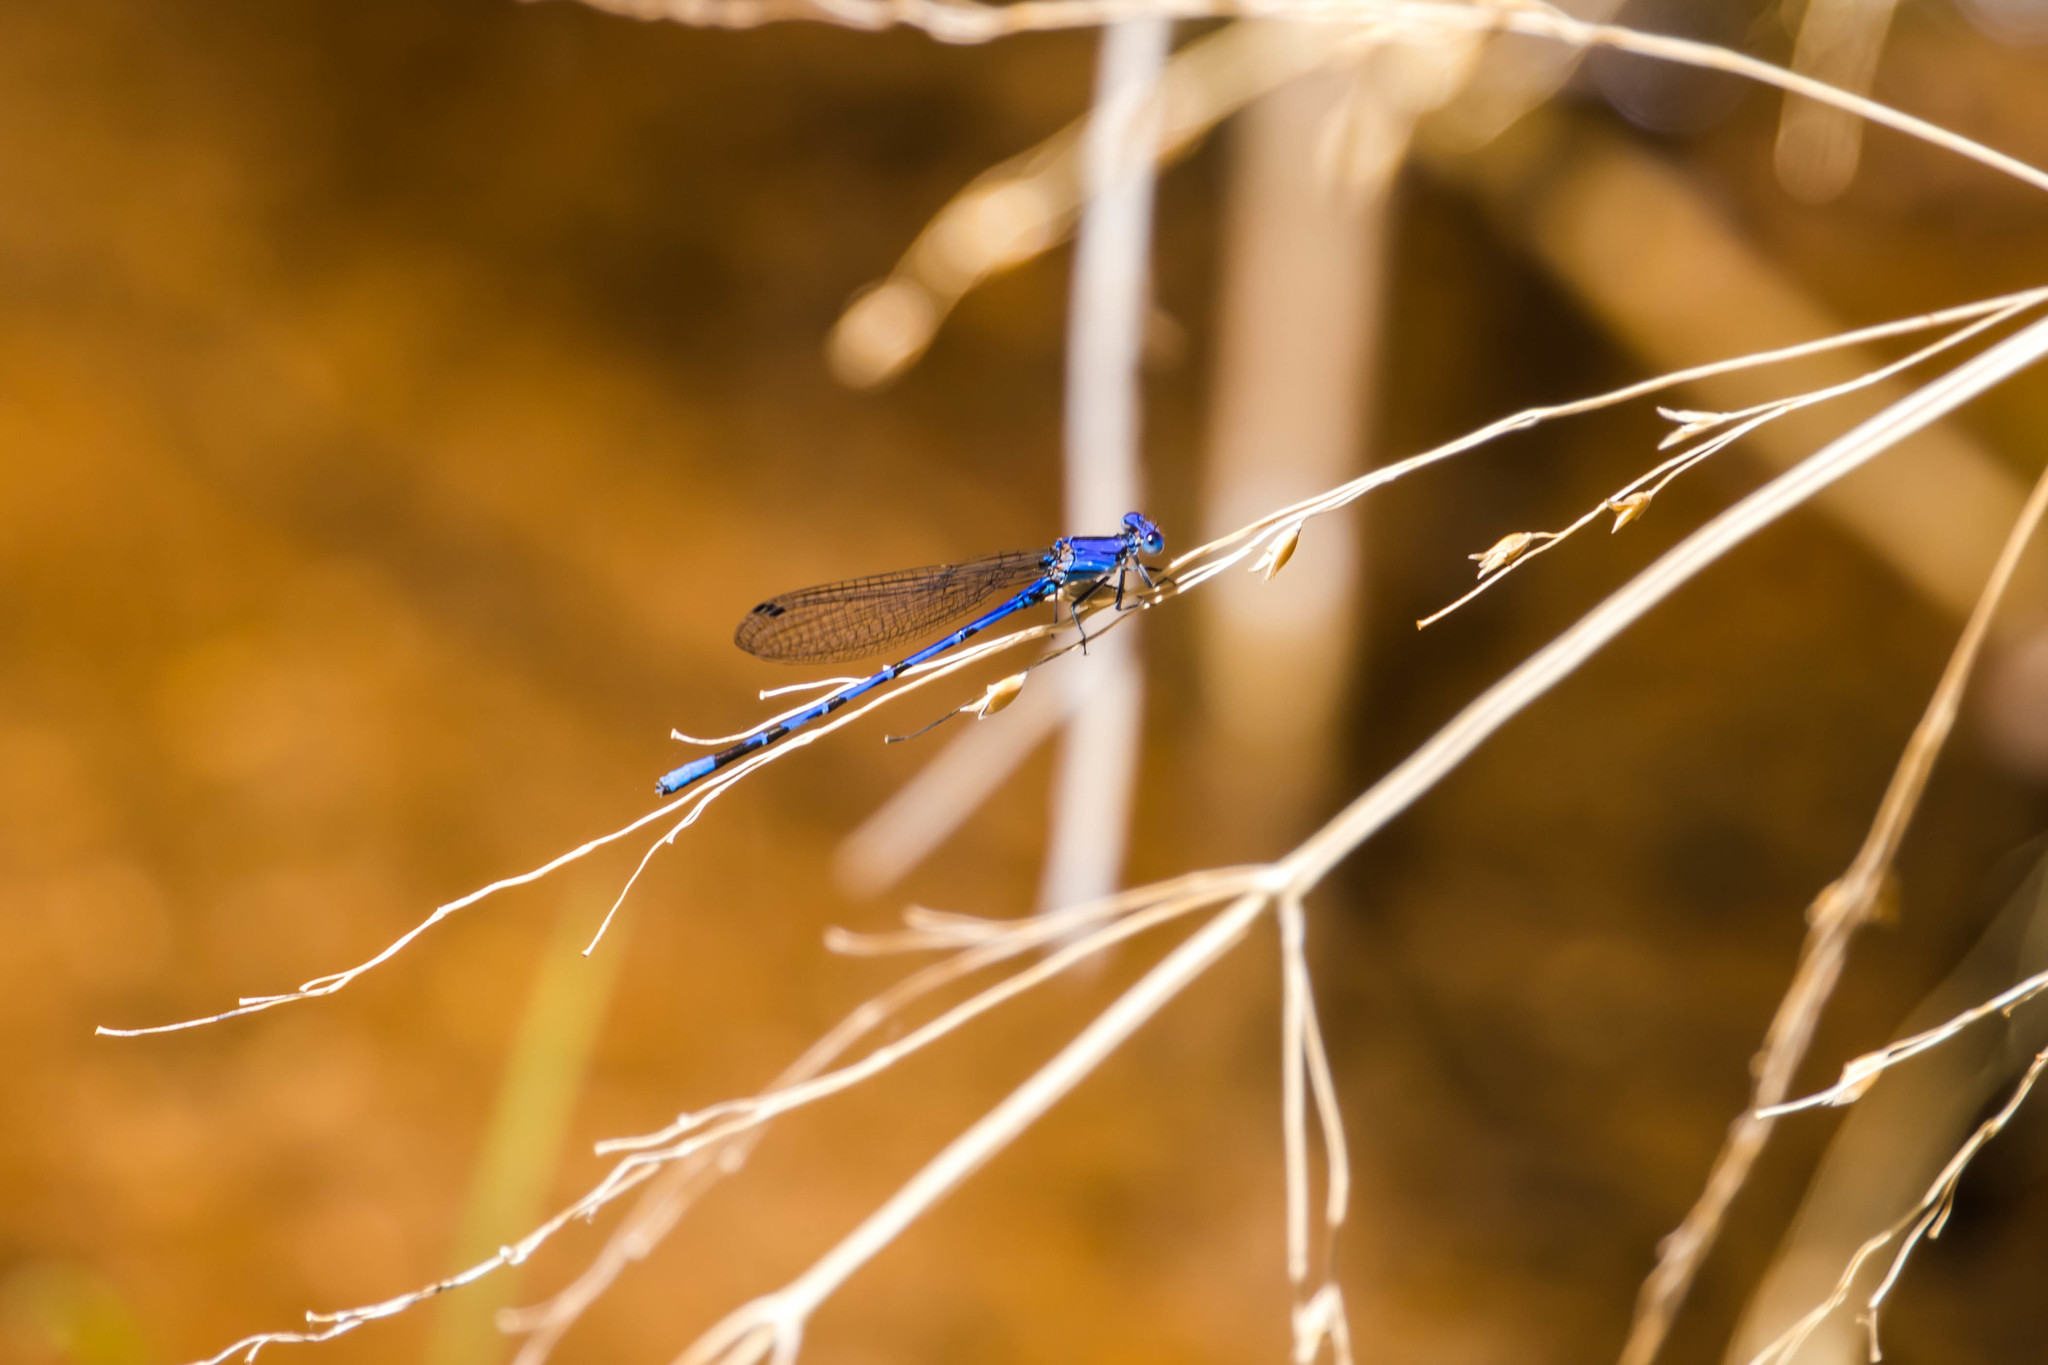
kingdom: Animalia
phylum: Arthropoda
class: Insecta
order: Odonata
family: Coenagrionidae
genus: Argia
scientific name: Argia extranea
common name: Spine-tipped dancer
